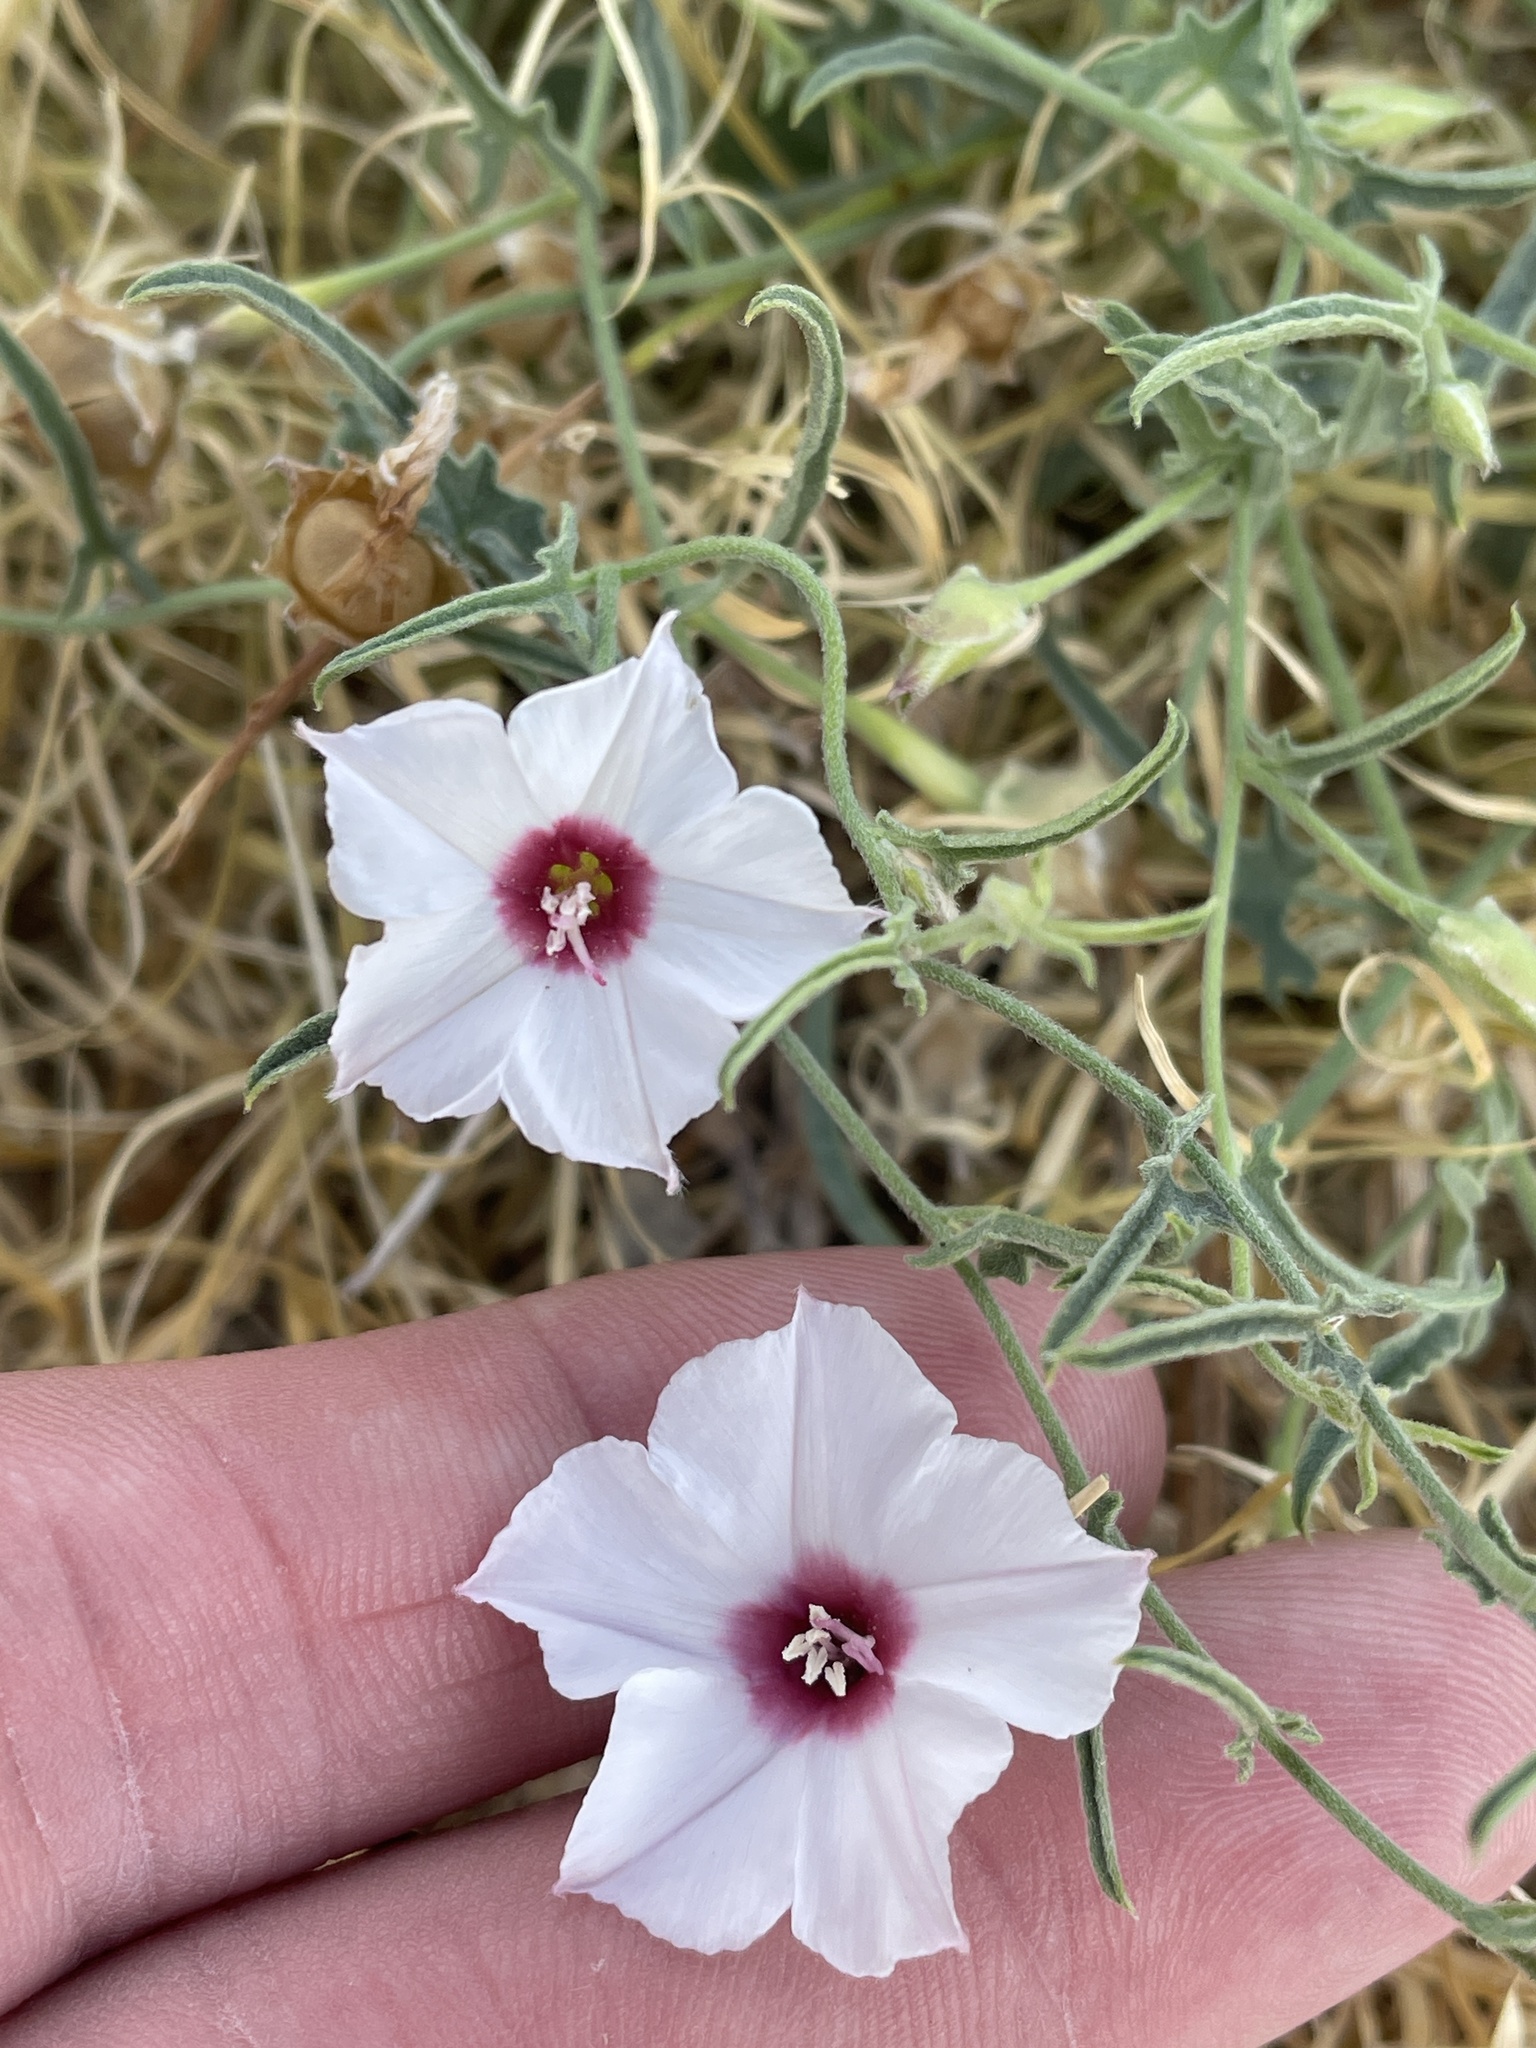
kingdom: Plantae
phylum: Tracheophyta
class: Magnoliopsida
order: Solanales
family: Convolvulaceae
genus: Convolvulus
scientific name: Convolvulus equitans
